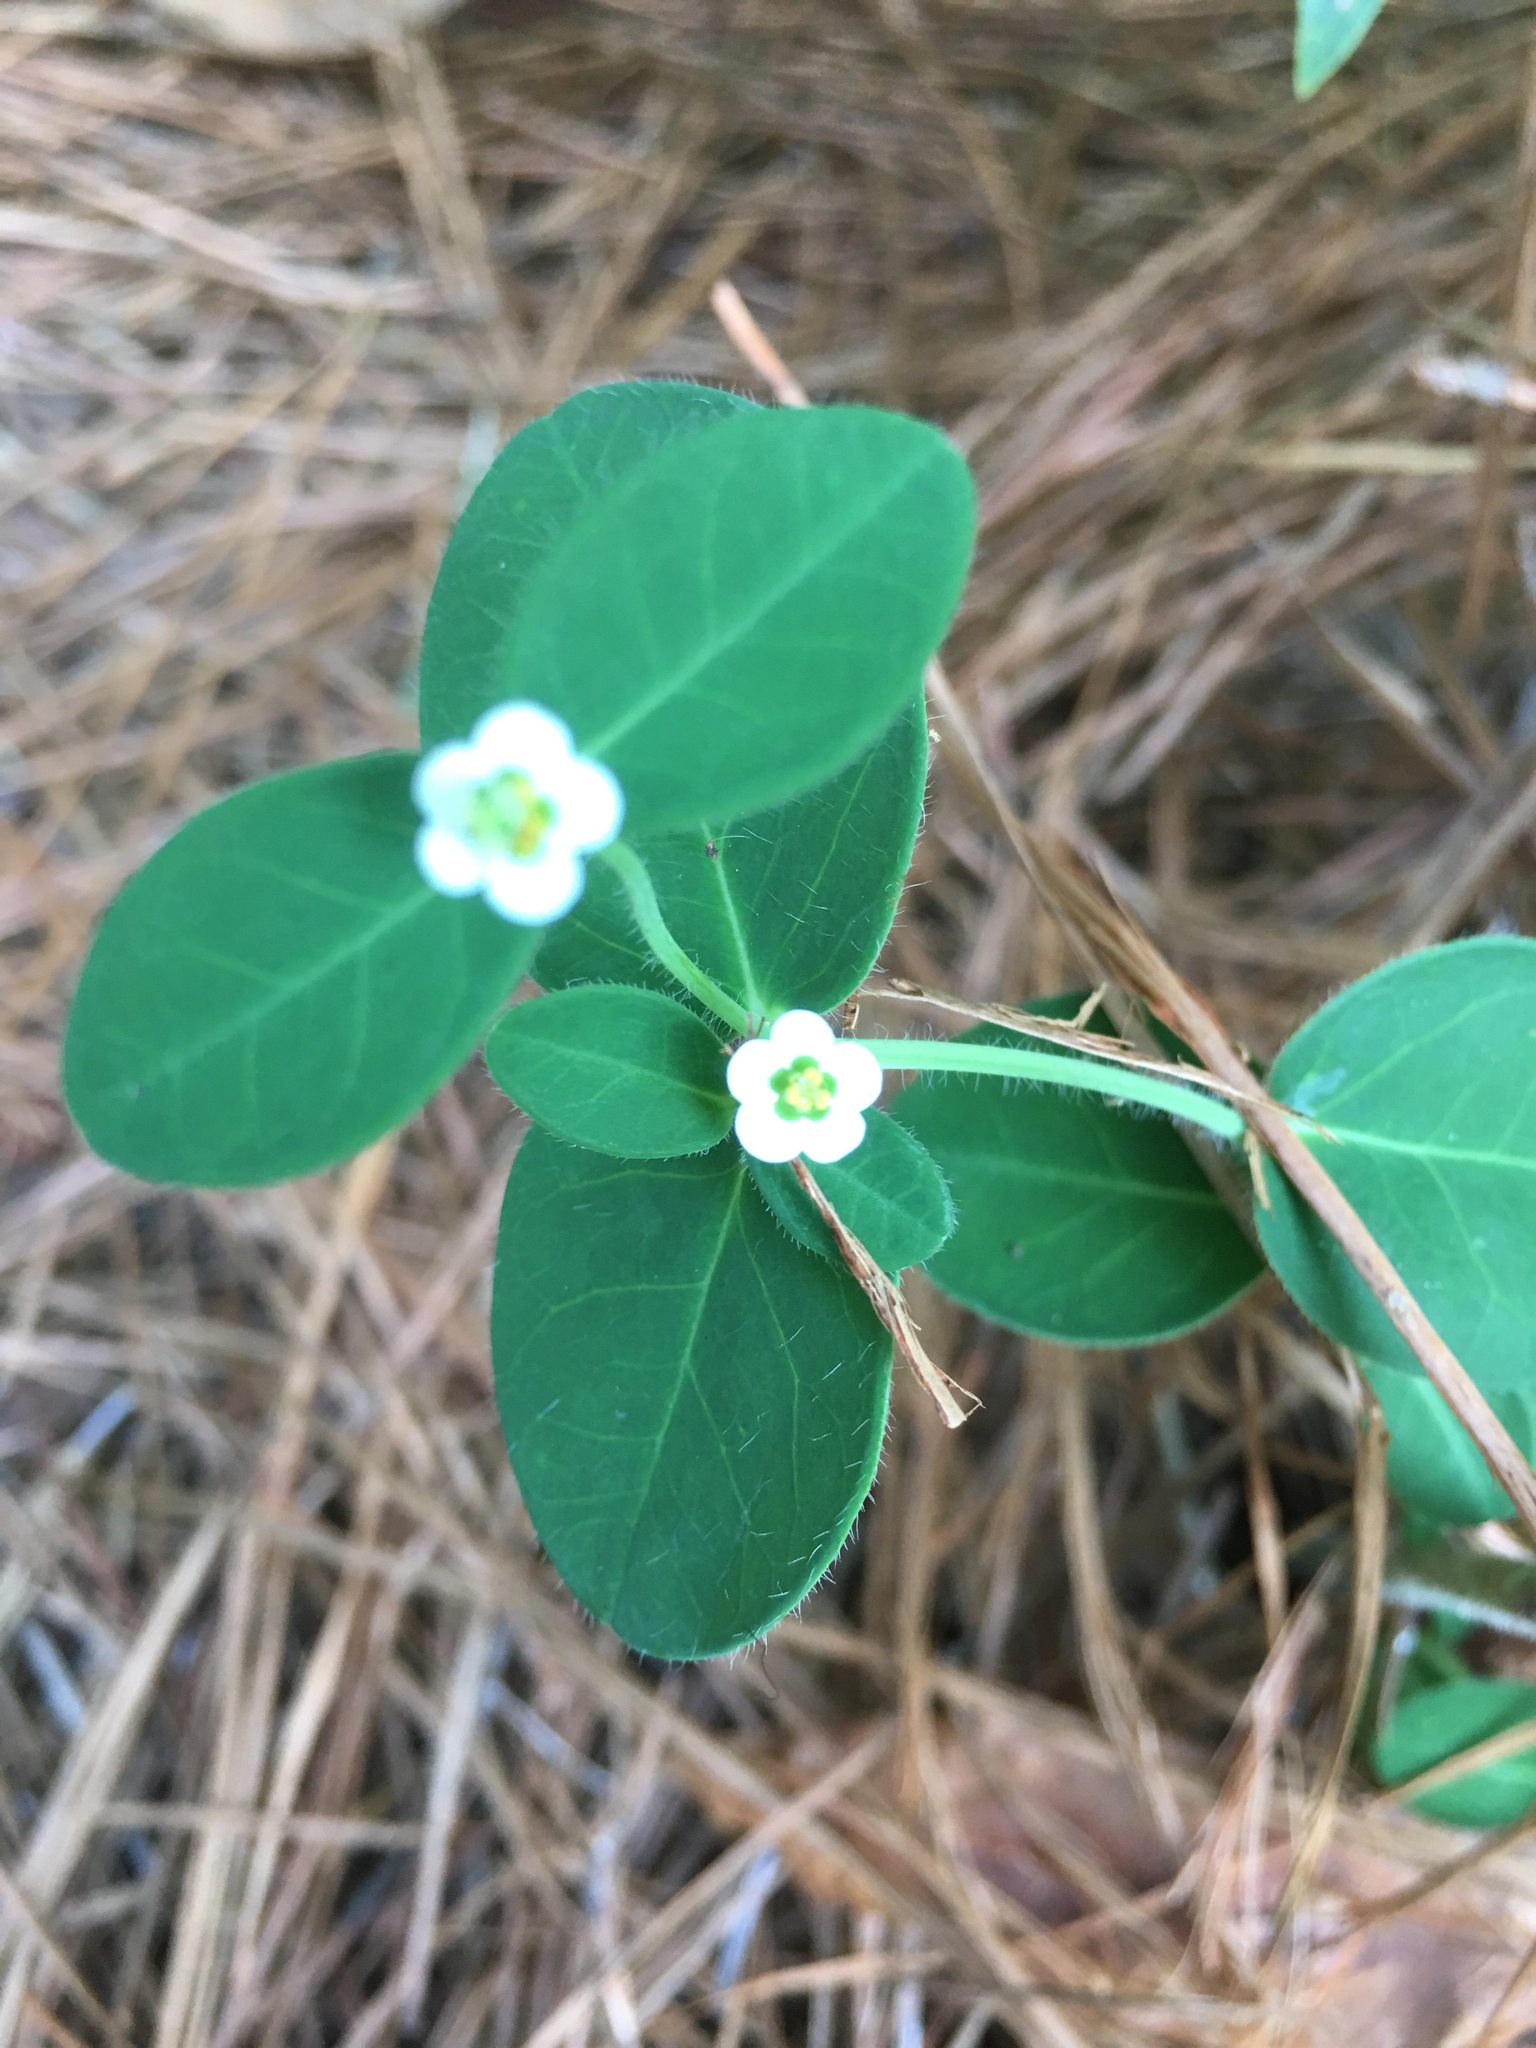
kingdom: Plantae
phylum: Tracheophyta
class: Magnoliopsida
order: Malpighiales
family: Euphorbiaceae
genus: Euphorbia
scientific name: Euphorbia corollata
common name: Flowering spurge
